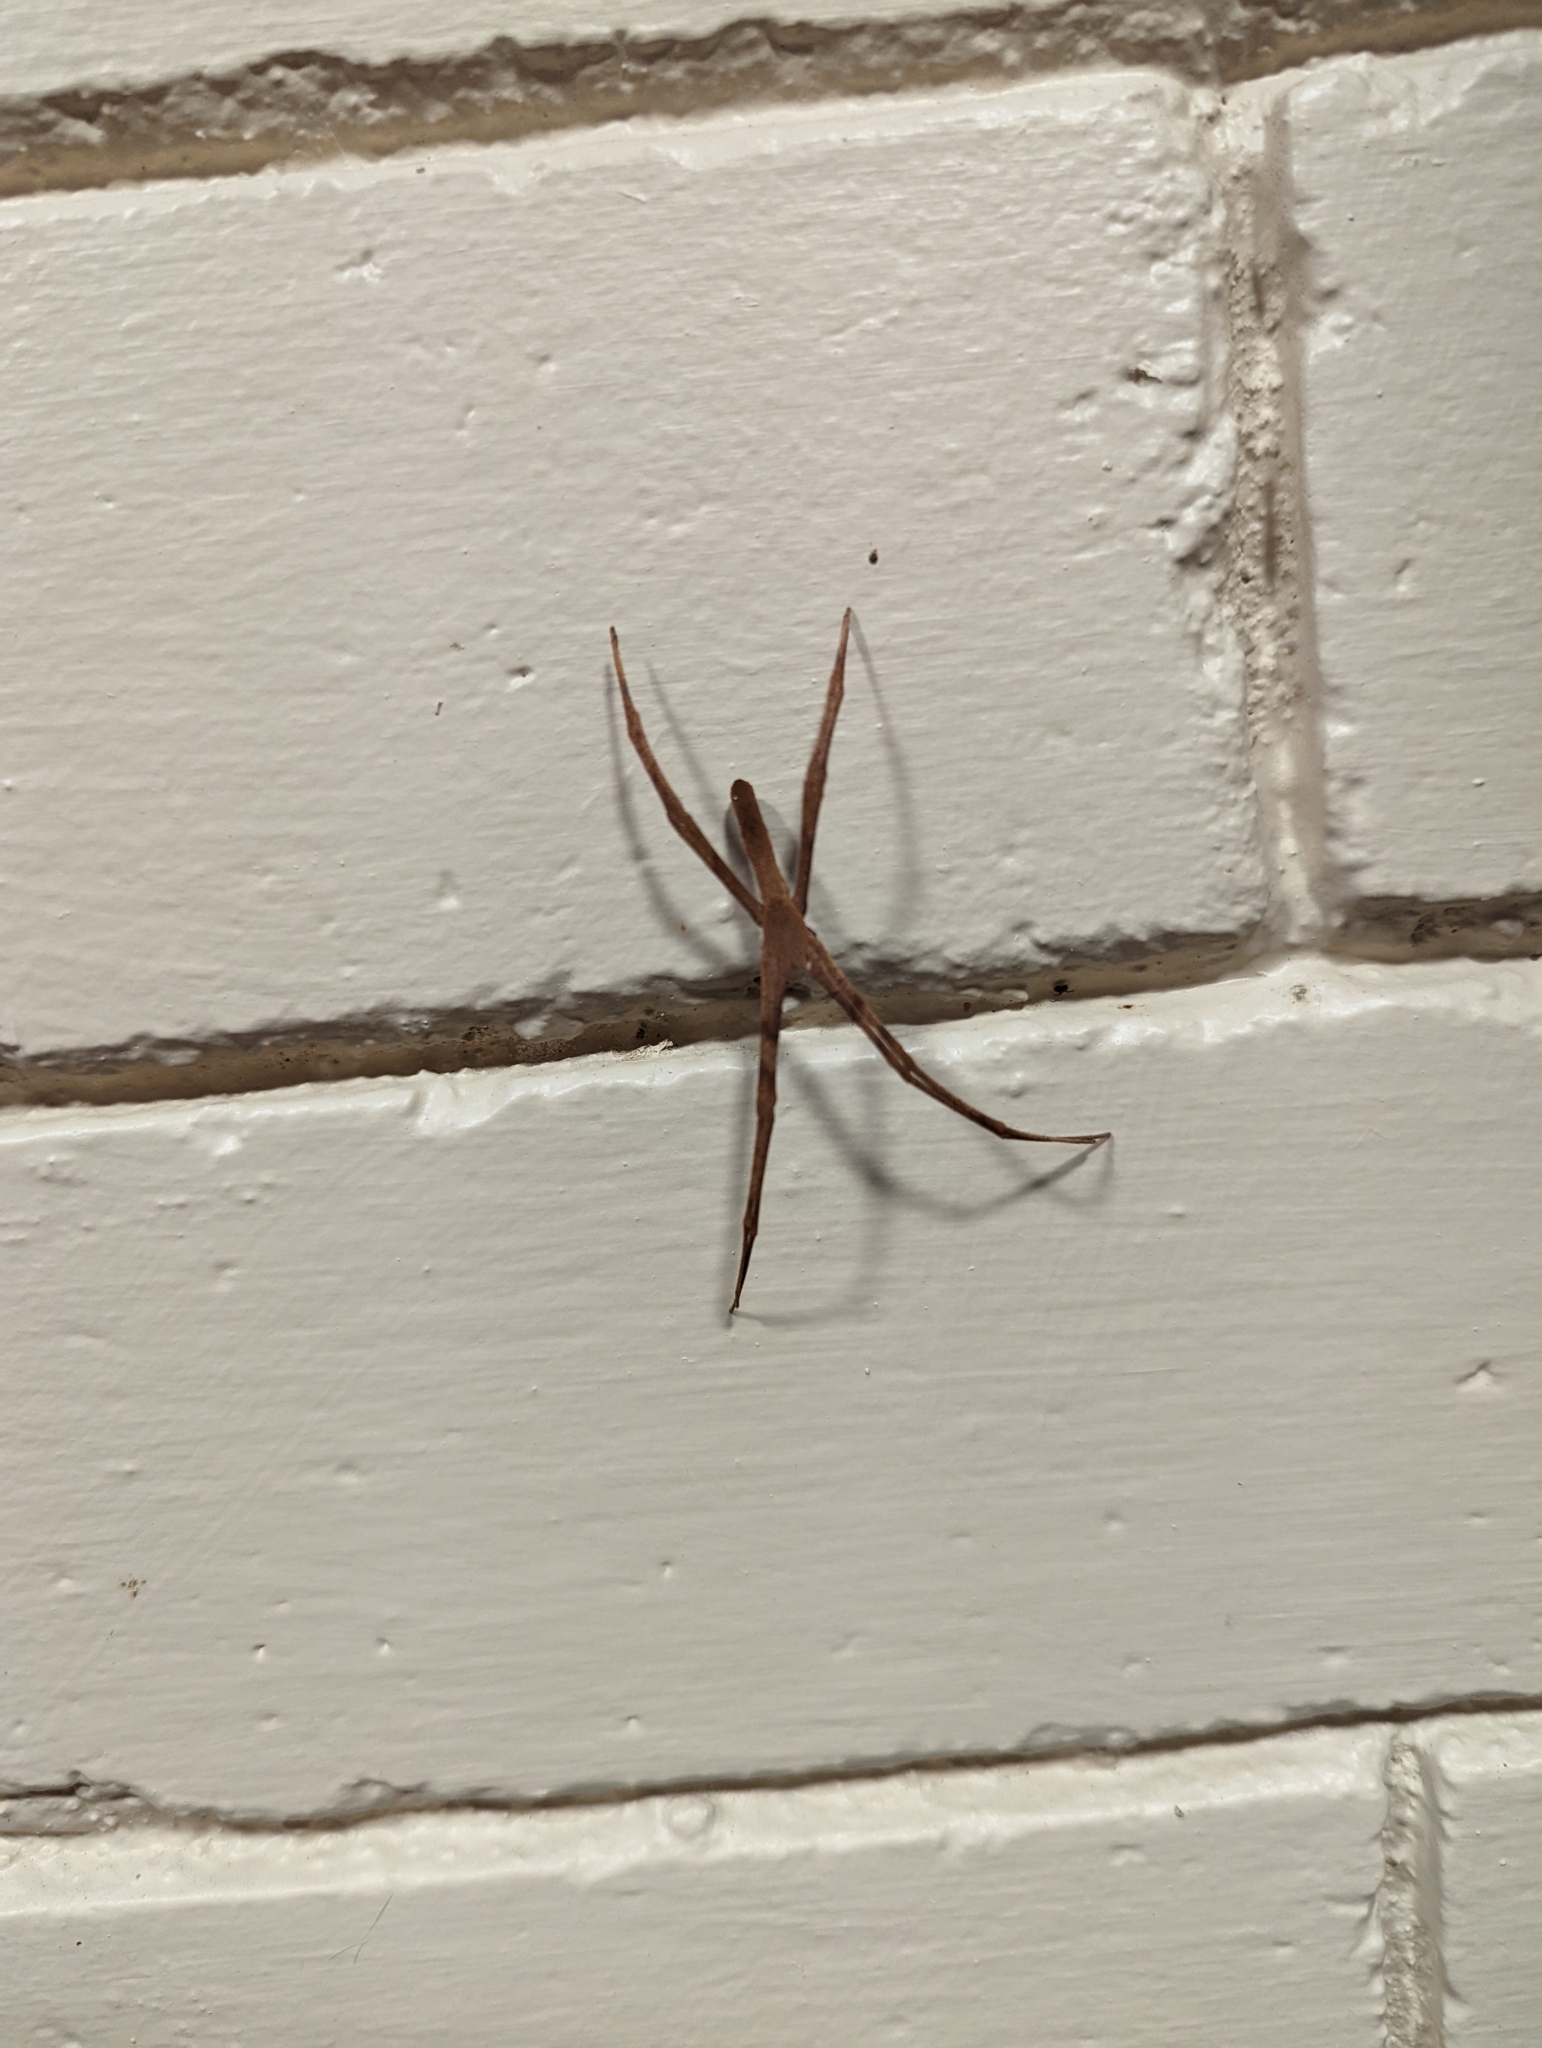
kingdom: Animalia
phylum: Arthropoda
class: Arachnida
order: Araneae
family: Deinopidae
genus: Deinopis
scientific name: Deinopis subrufa
